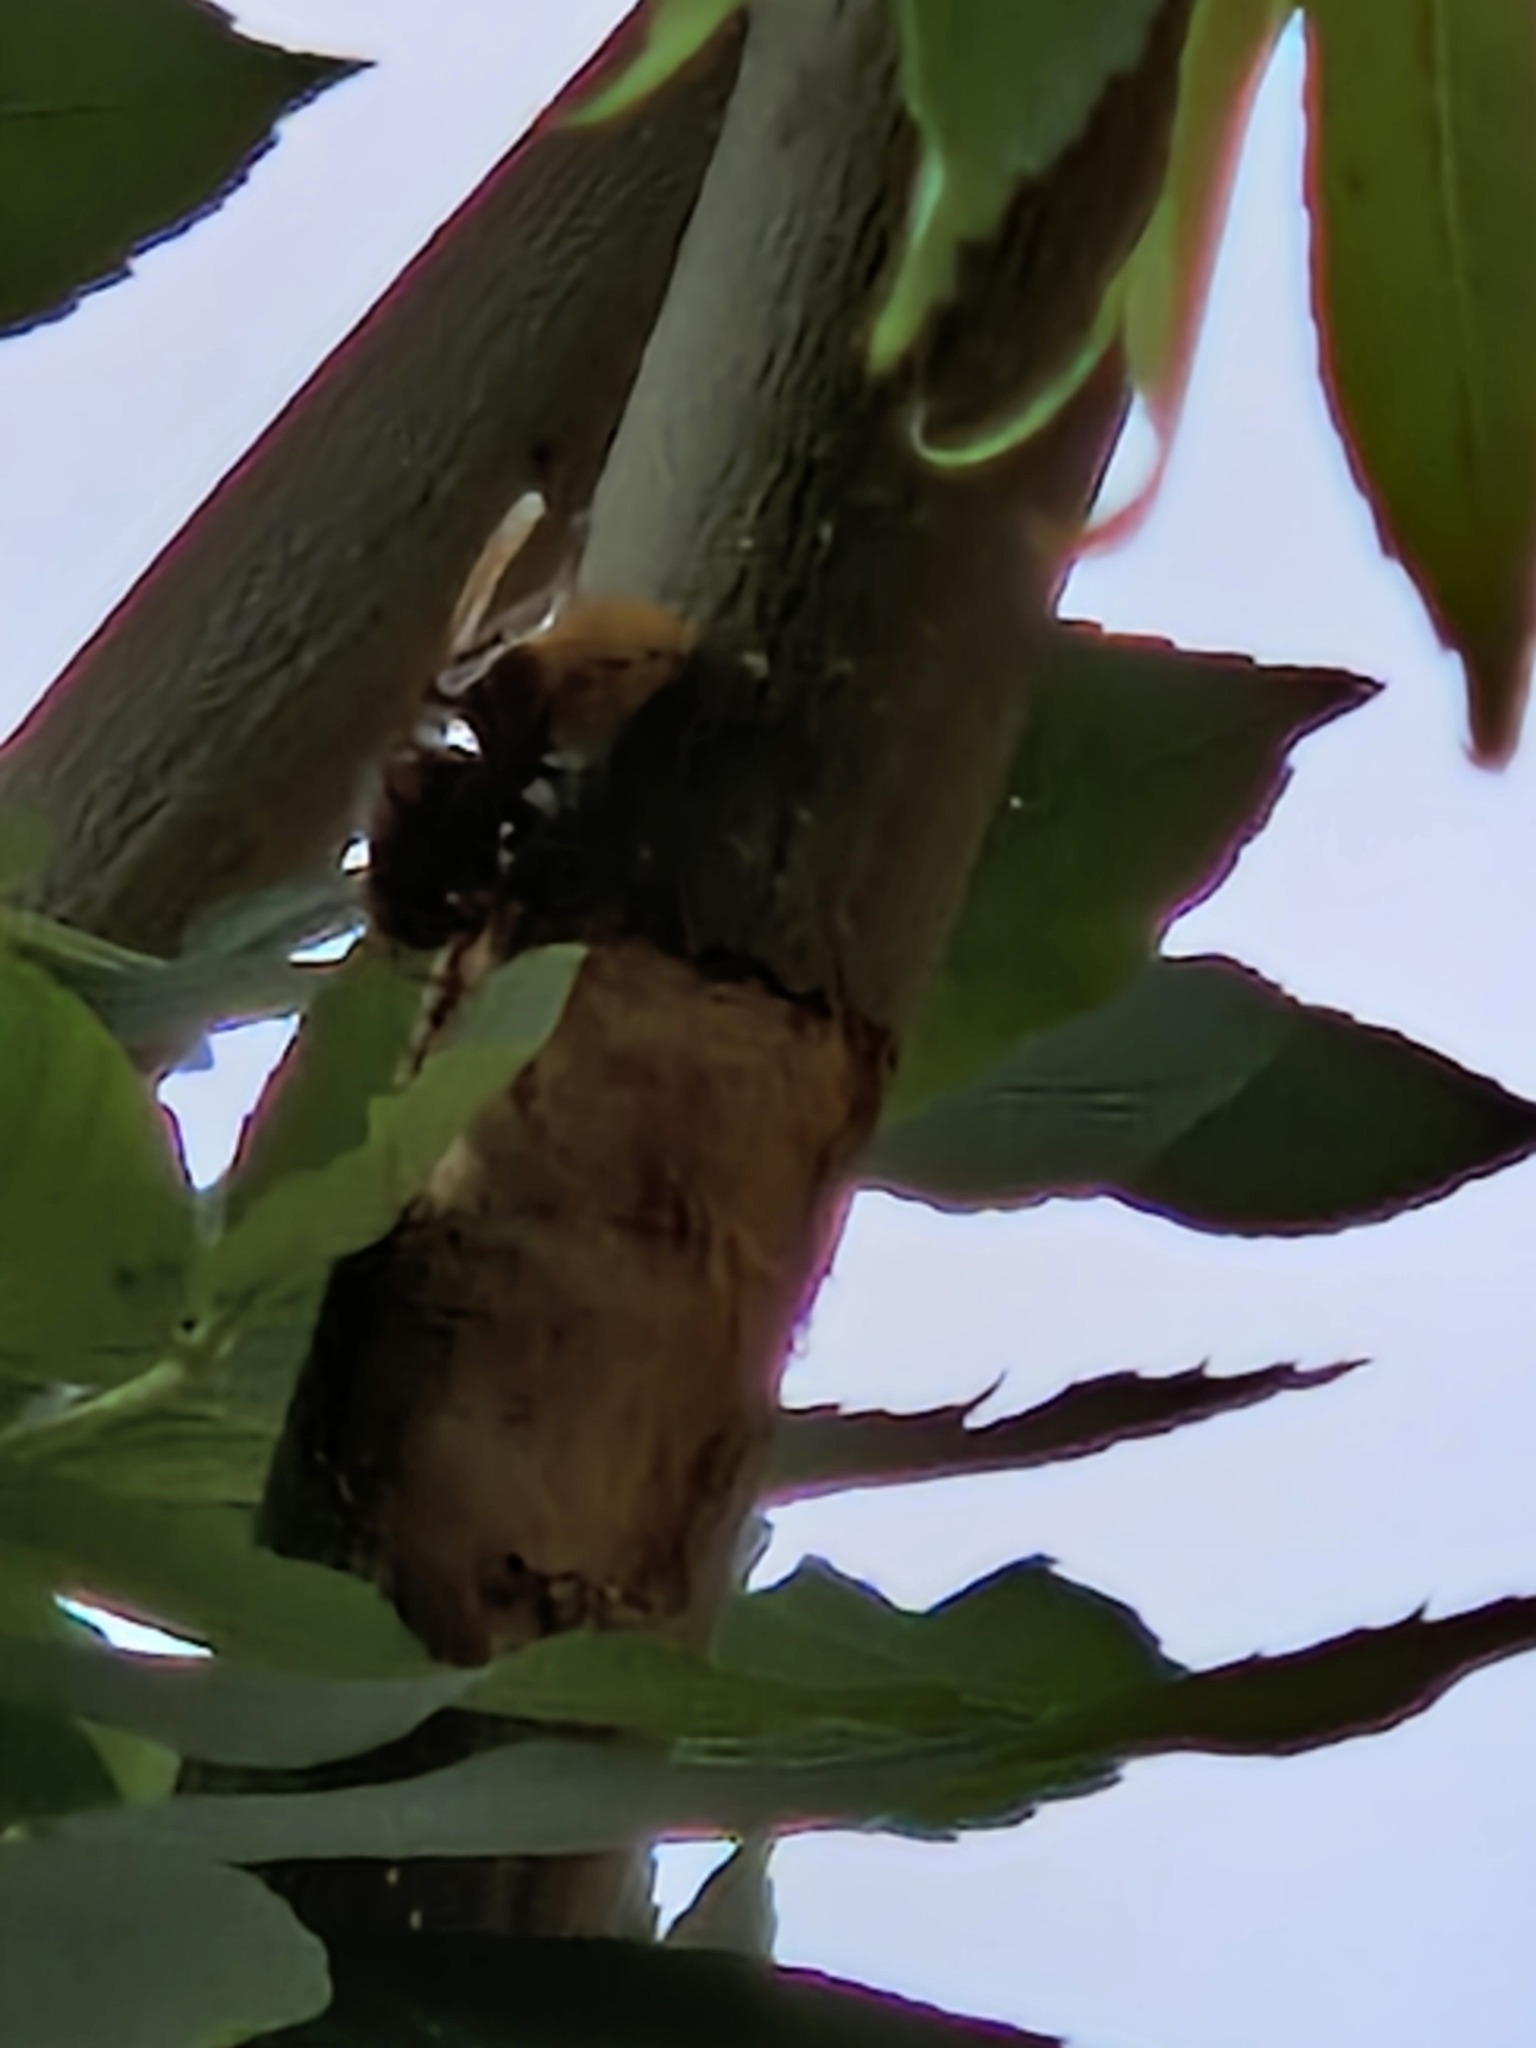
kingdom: Animalia
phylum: Arthropoda
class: Insecta
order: Hymenoptera
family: Vespidae
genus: Vespa
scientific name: Vespa crabro
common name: Hornet
